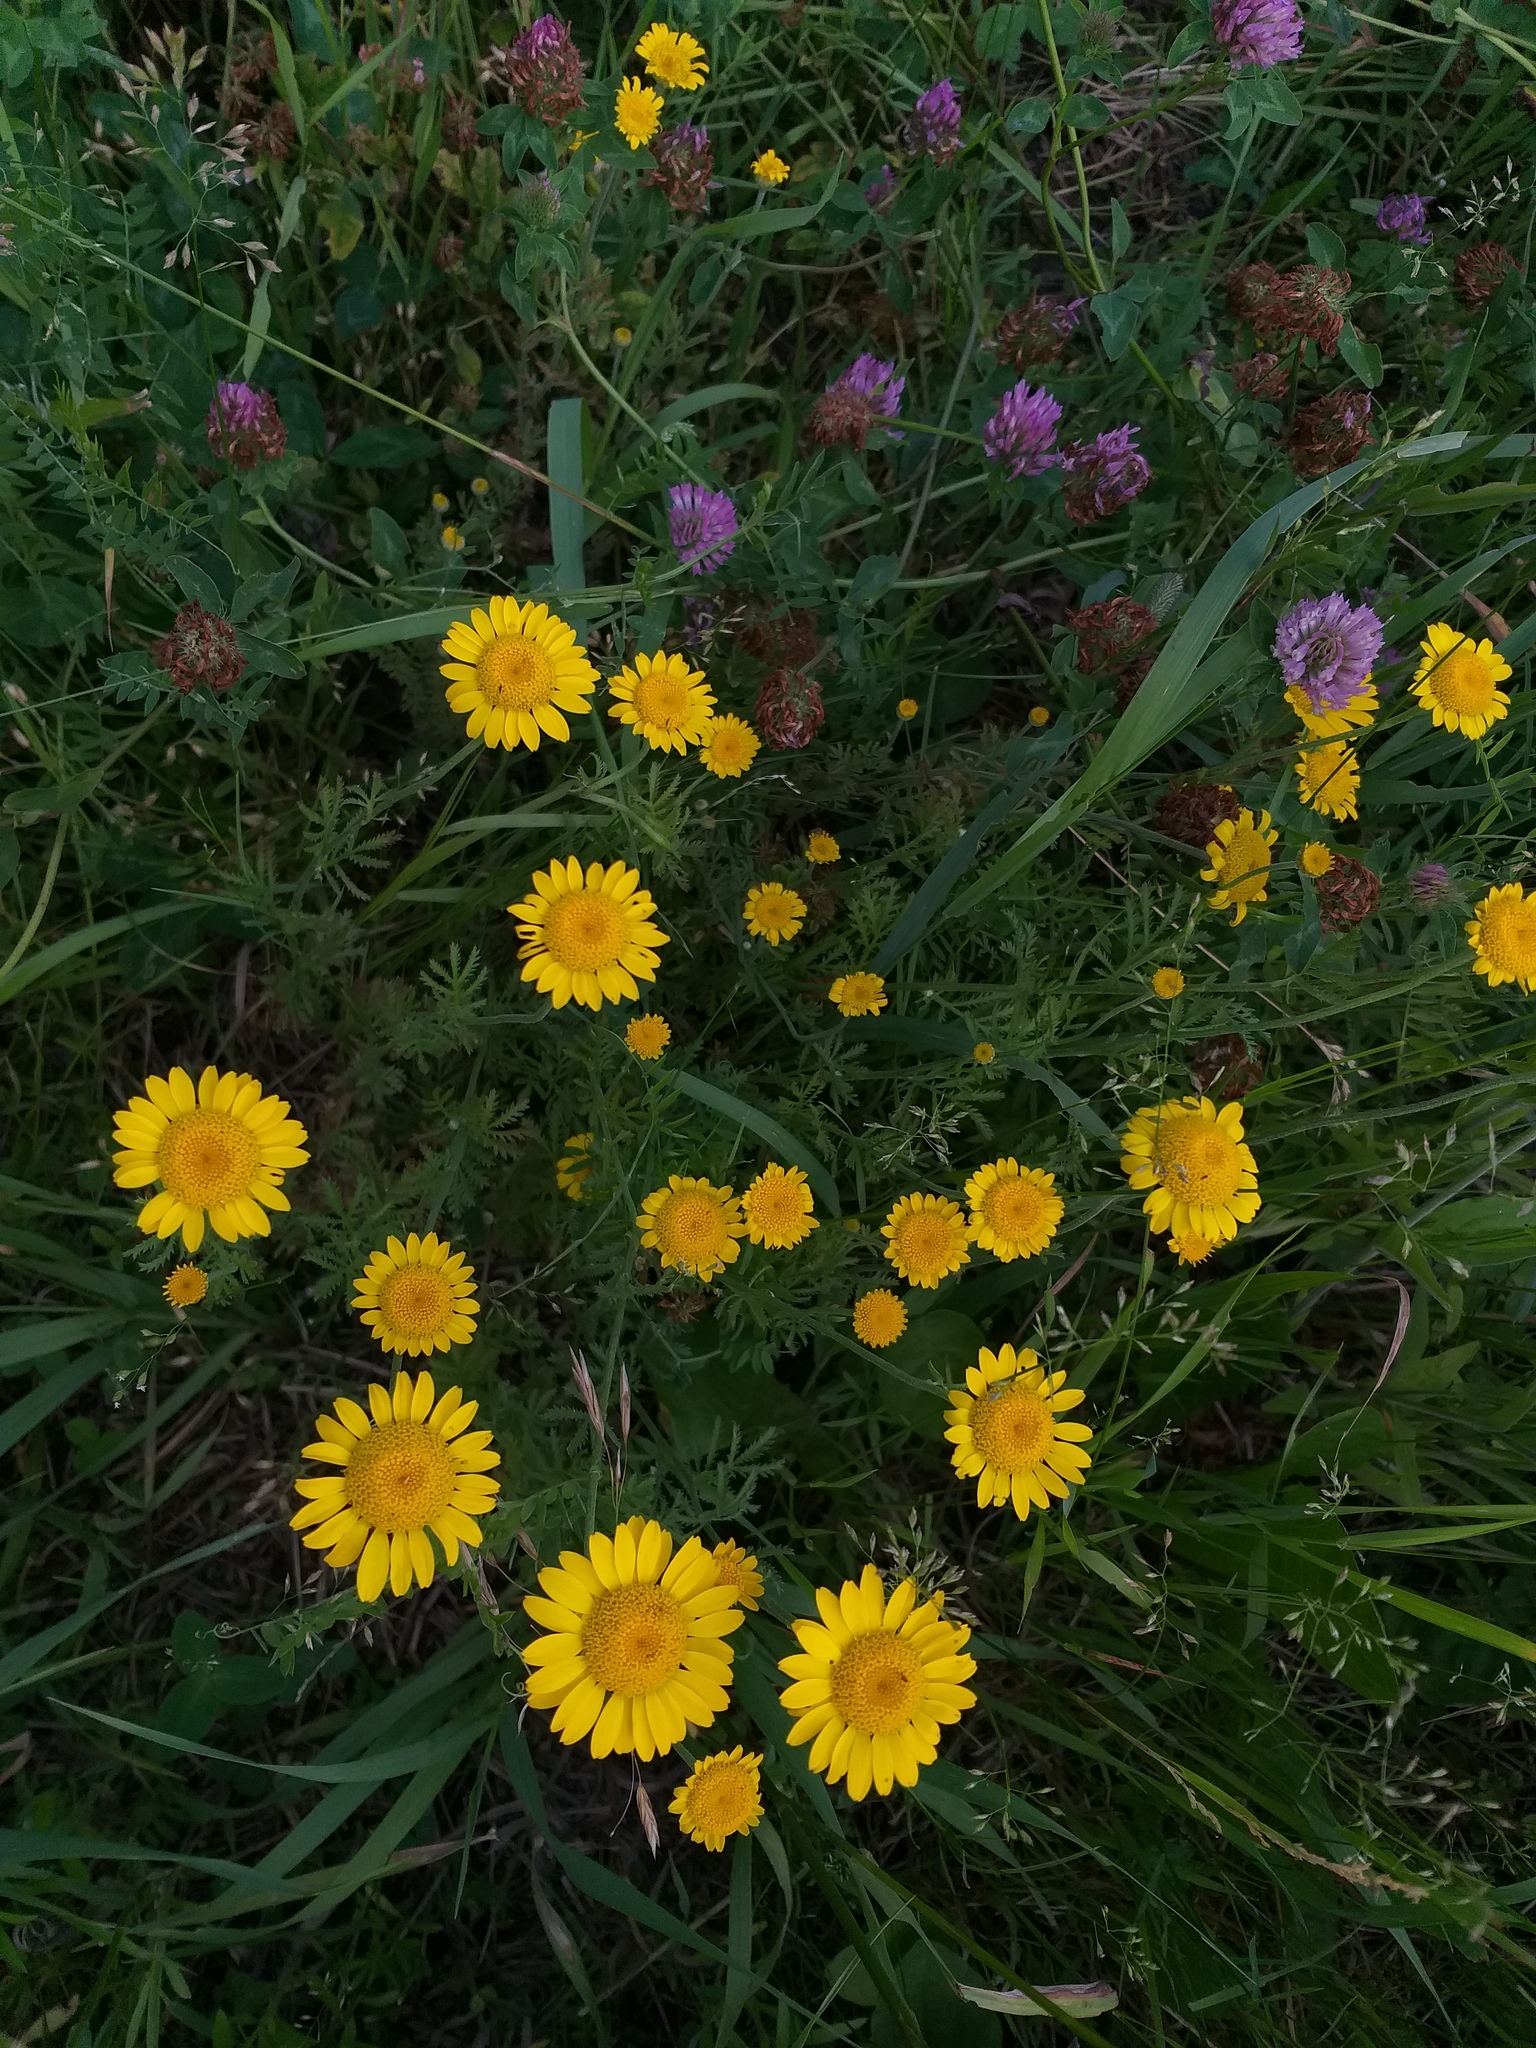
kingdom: Plantae
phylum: Tracheophyta
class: Magnoliopsida
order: Asterales
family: Asteraceae
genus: Cota
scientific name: Cota tinctoria
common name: Golden chamomile
